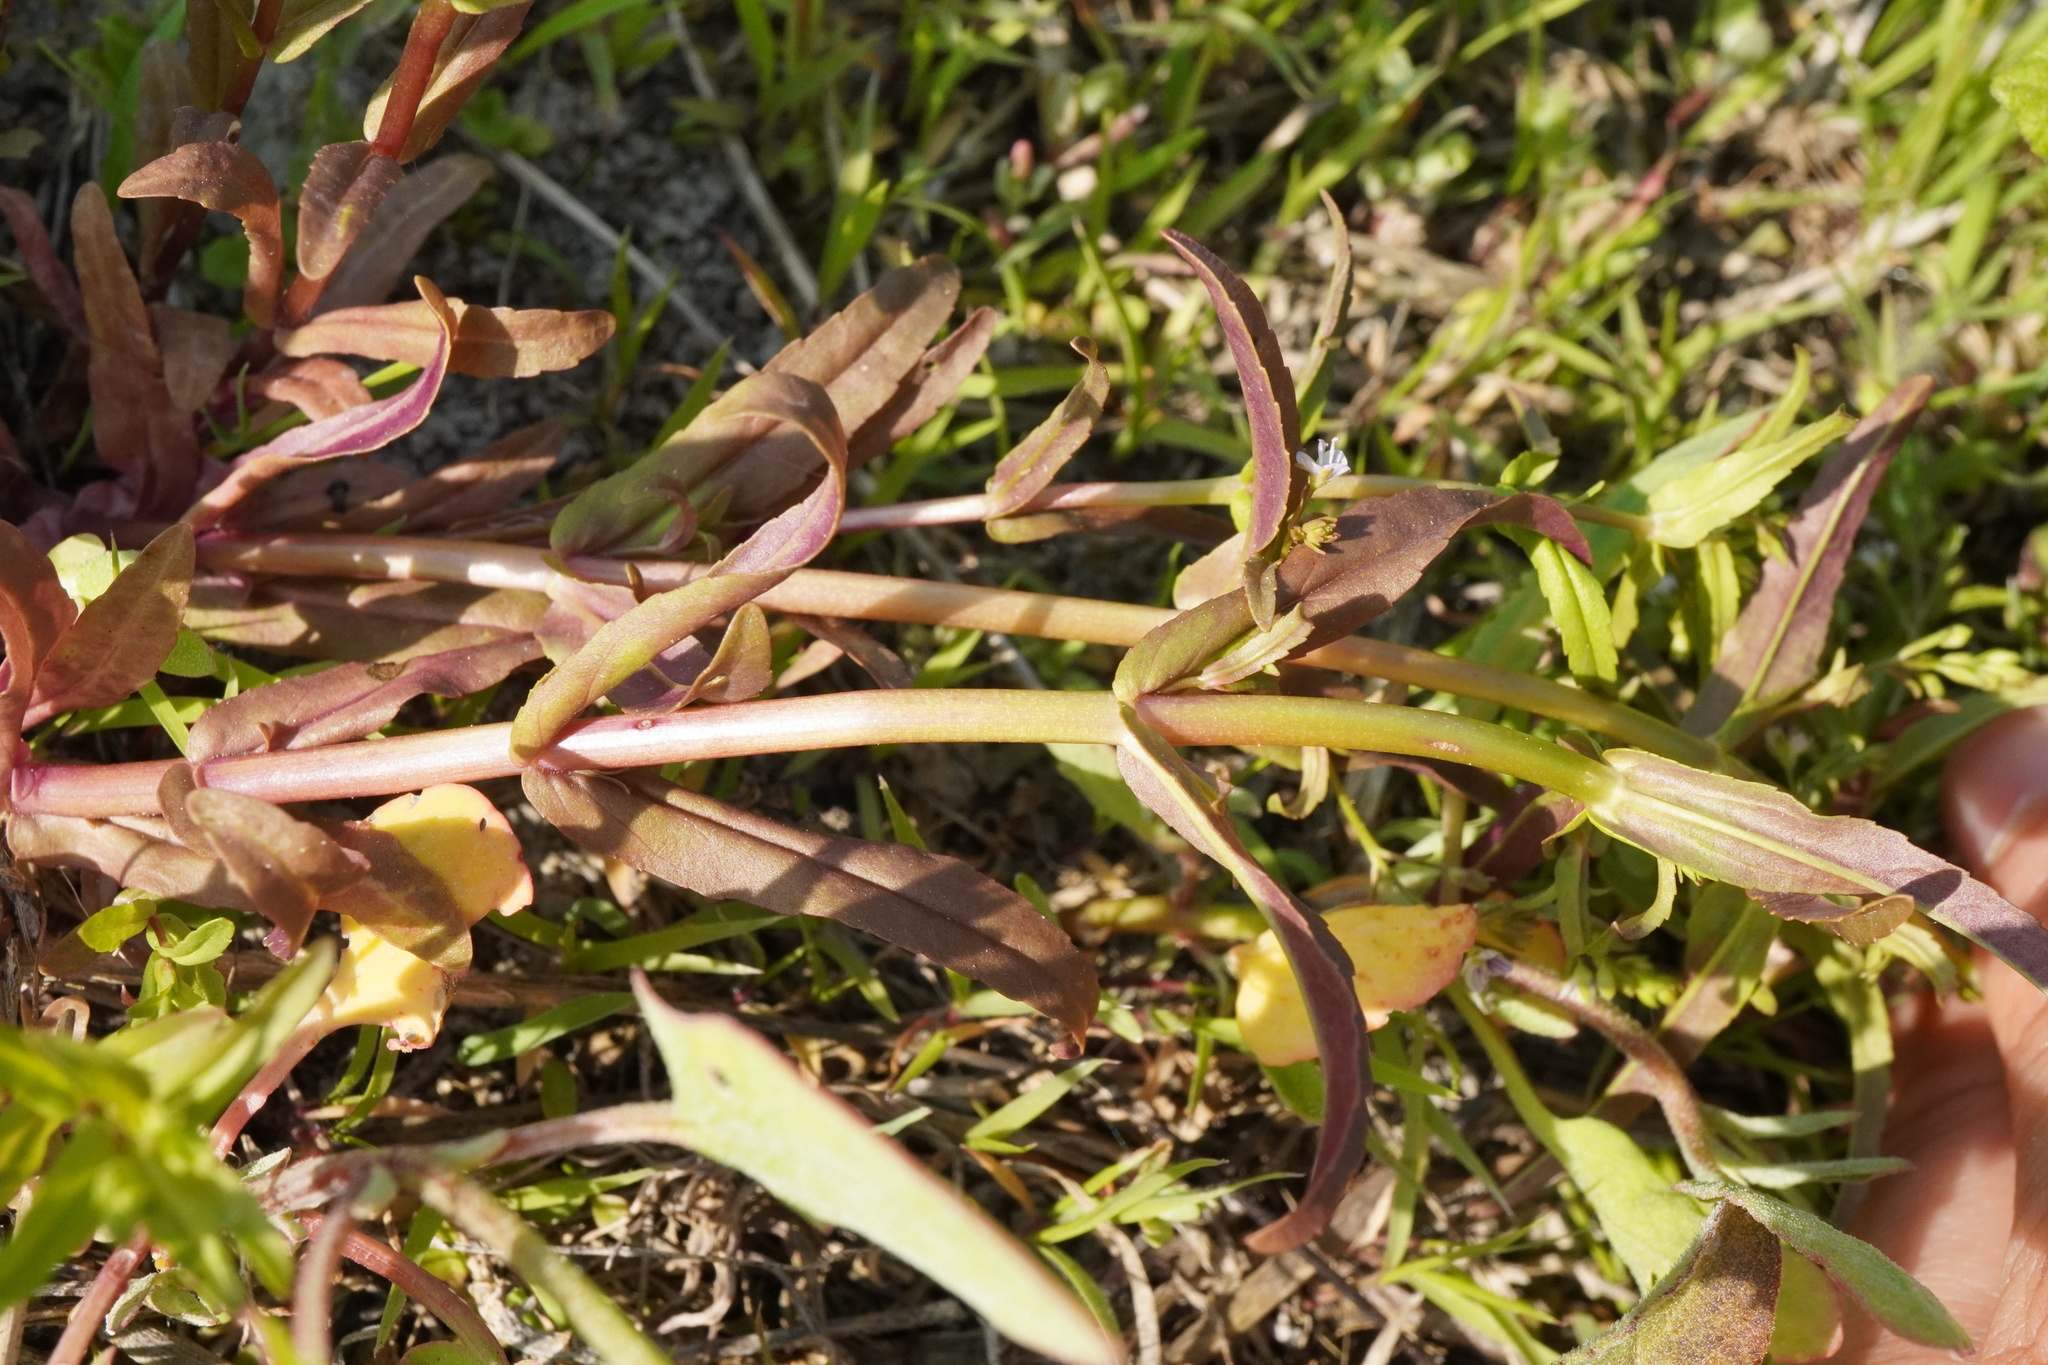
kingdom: Plantae
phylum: Tracheophyta
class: Magnoliopsida
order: Lamiales
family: Plantaginaceae
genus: Veronica
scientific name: Veronica anagalloides
